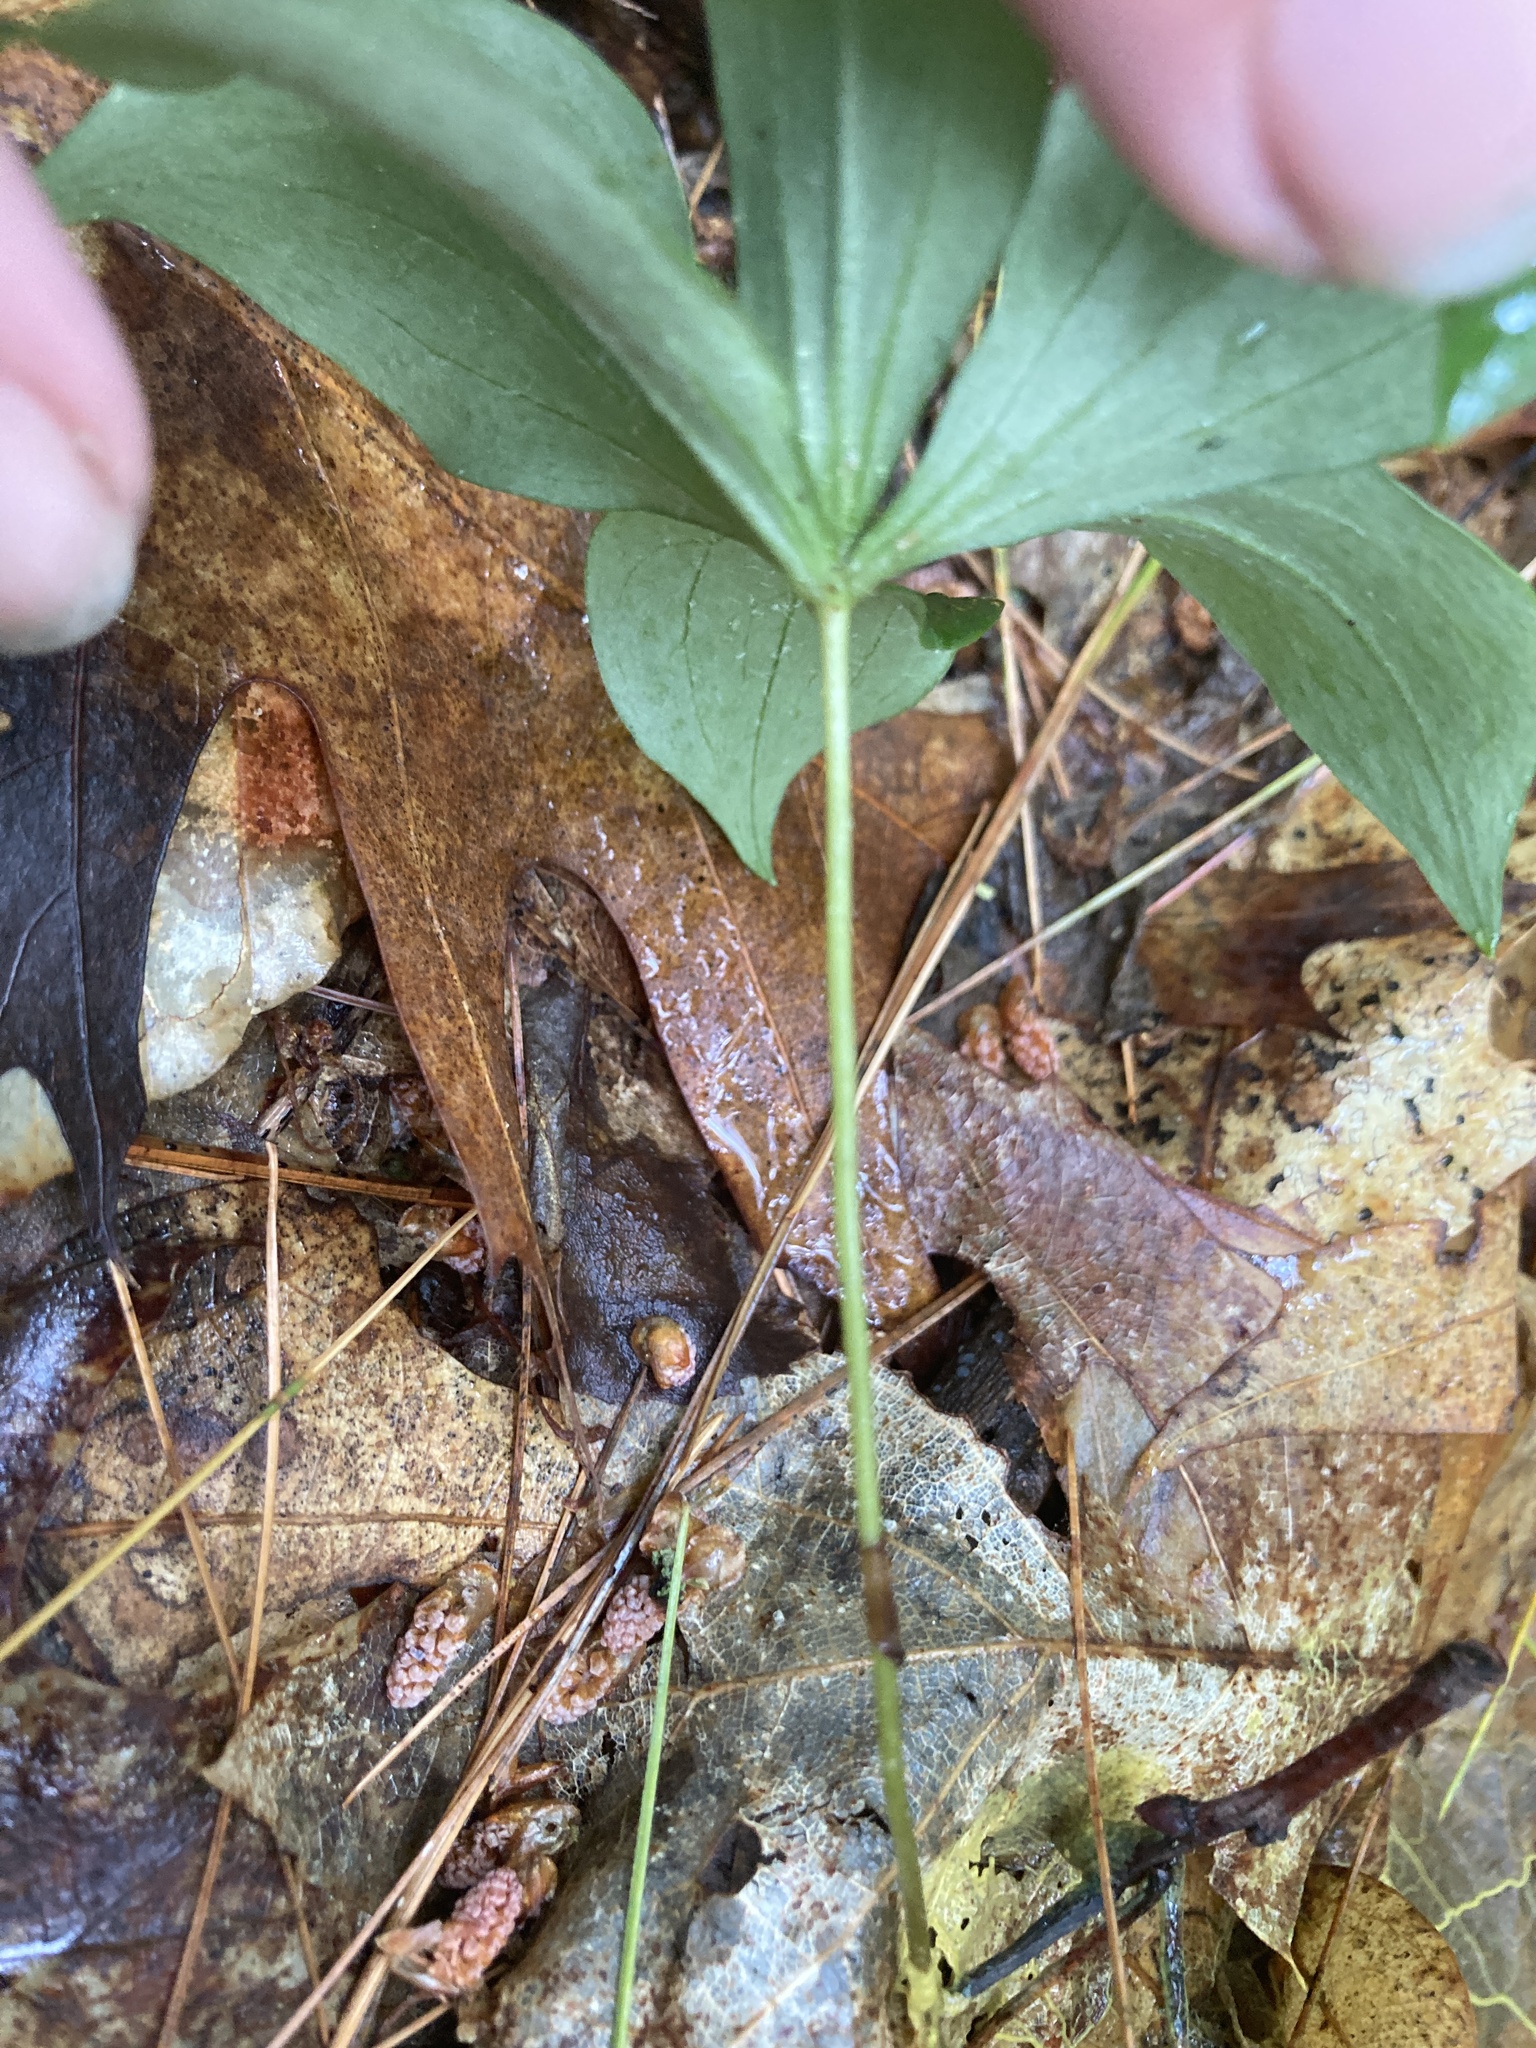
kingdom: Plantae
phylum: Tracheophyta
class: Liliopsida
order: Liliales
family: Liliaceae
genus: Medeola
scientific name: Medeola virginiana
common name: Indian cucumber-root
